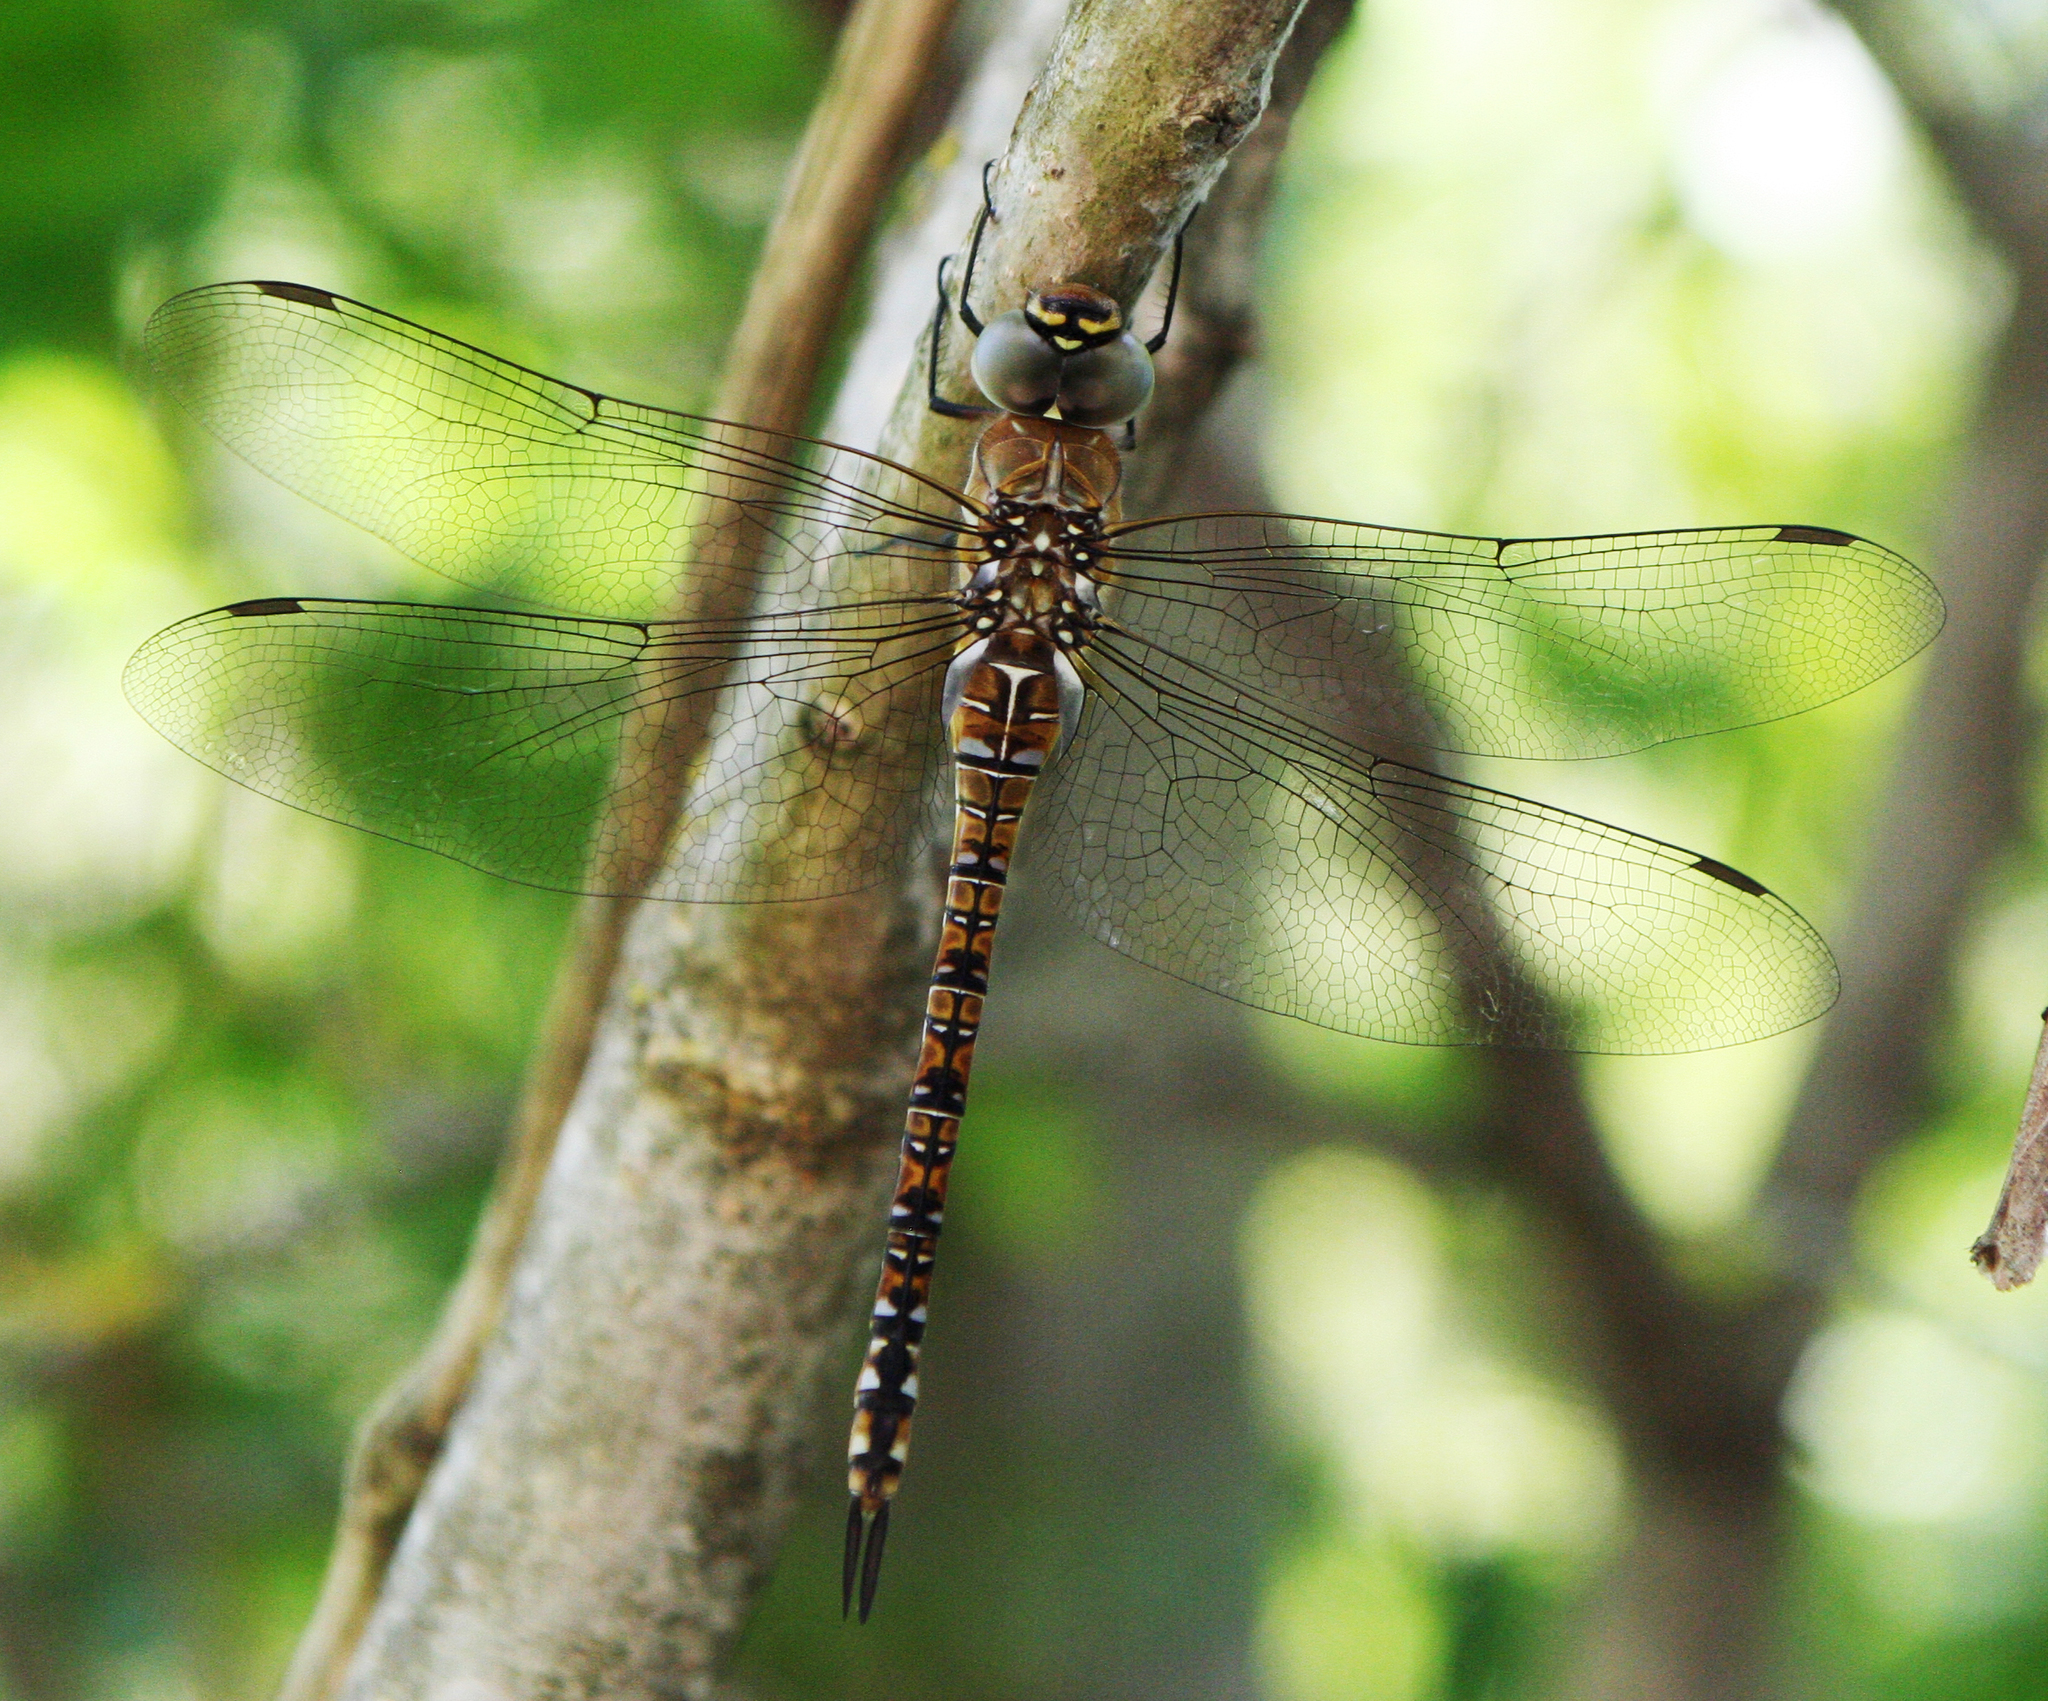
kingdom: Animalia
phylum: Arthropoda
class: Insecta
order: Odonata
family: Aeshnidae
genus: Aeshna
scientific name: Aeshna mixta
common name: Migrant hawker
